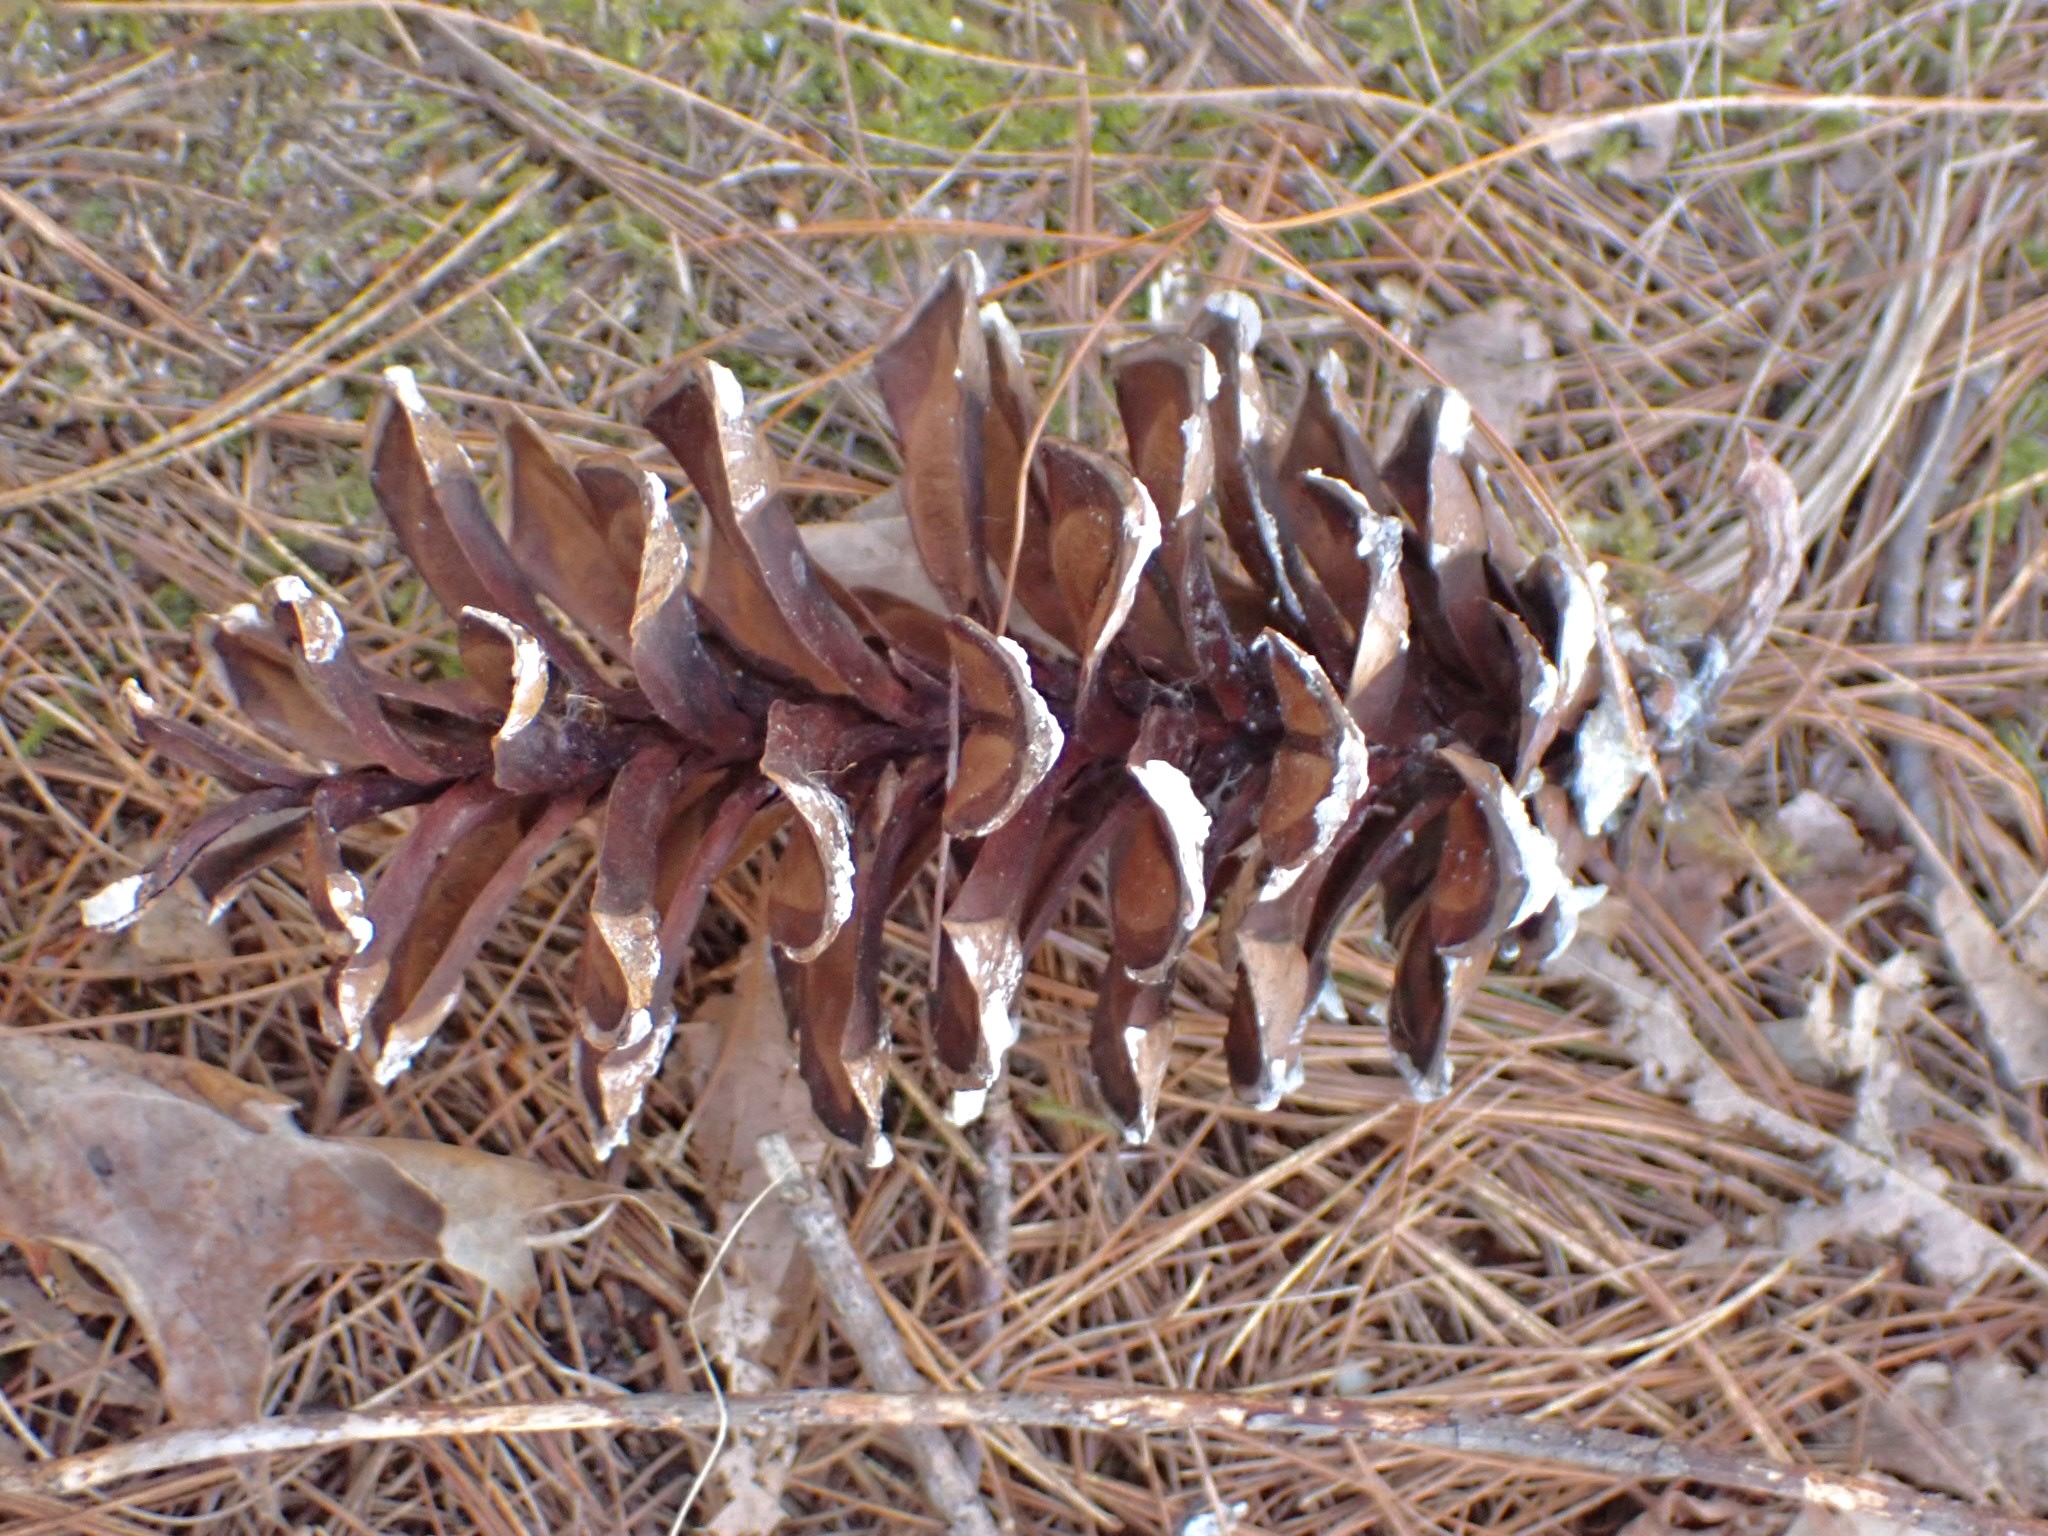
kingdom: Plantae
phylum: Tracheophyta
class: Pinopsida
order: Pinales
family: Pinaceae
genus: Pinus
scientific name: Pinus strobus
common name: Weymouth pine
